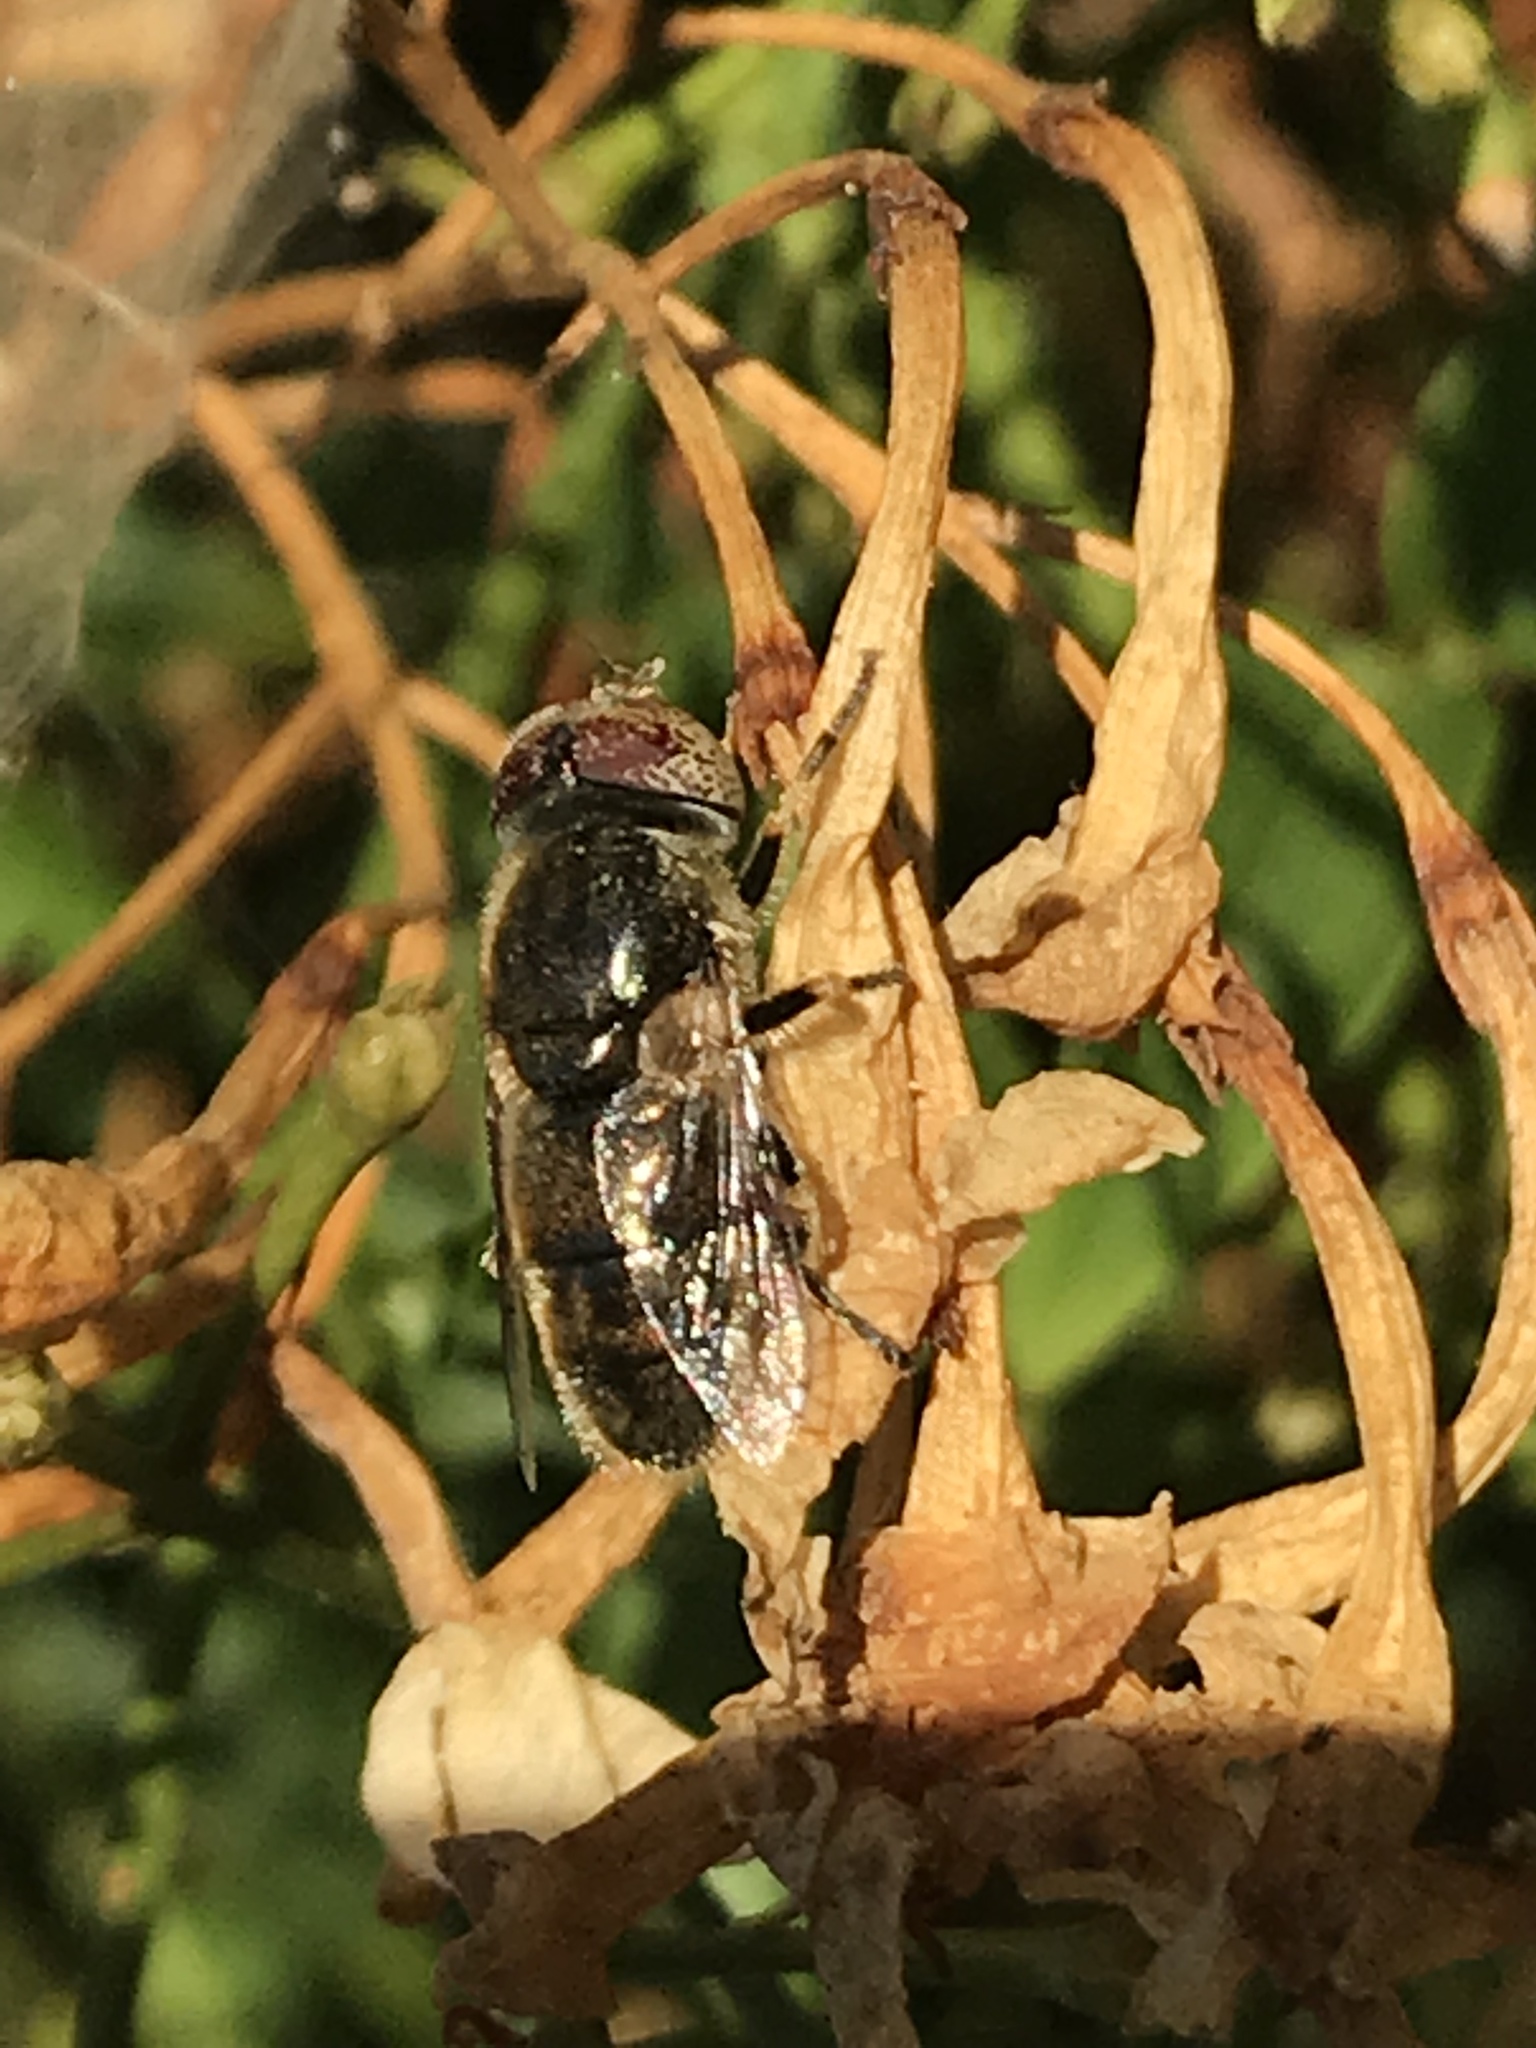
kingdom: Animalia
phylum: Arthropoda
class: Insecta
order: Diptera
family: Syrphidae
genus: Eristalinus
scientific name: Eristalinus aeneus
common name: Syrphid fly
